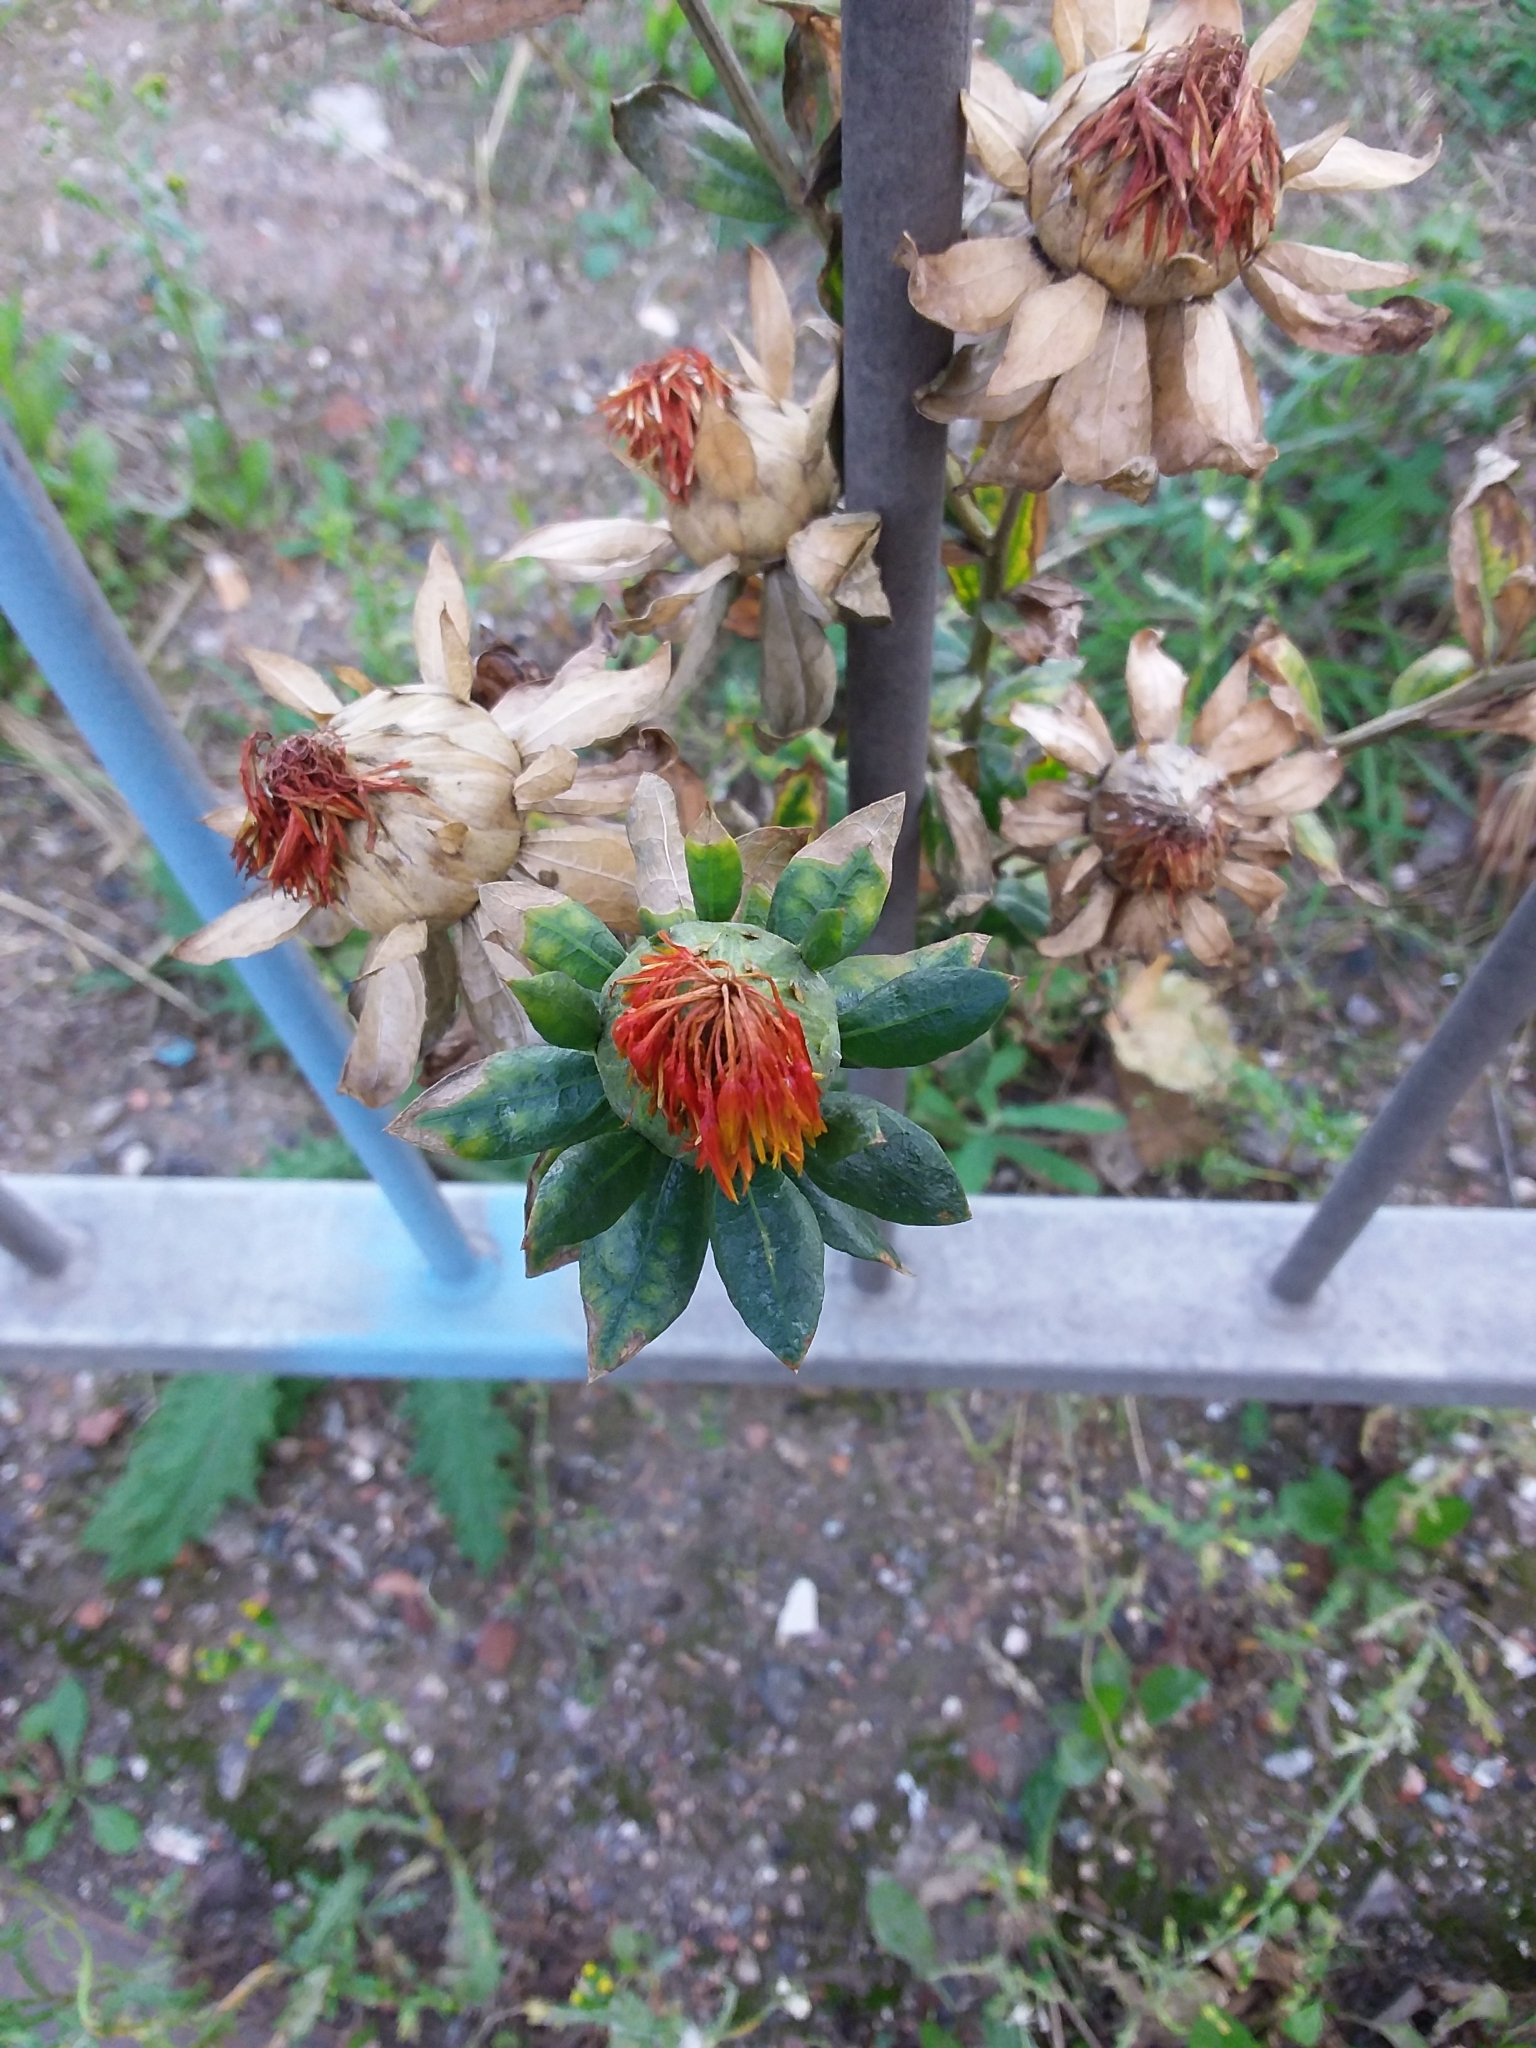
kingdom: Plantae
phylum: Tracheophyta
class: Magnoliopsida
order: Asterales
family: Asteraceae
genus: Carthamus
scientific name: Carthamus tinctorius
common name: Safflower
